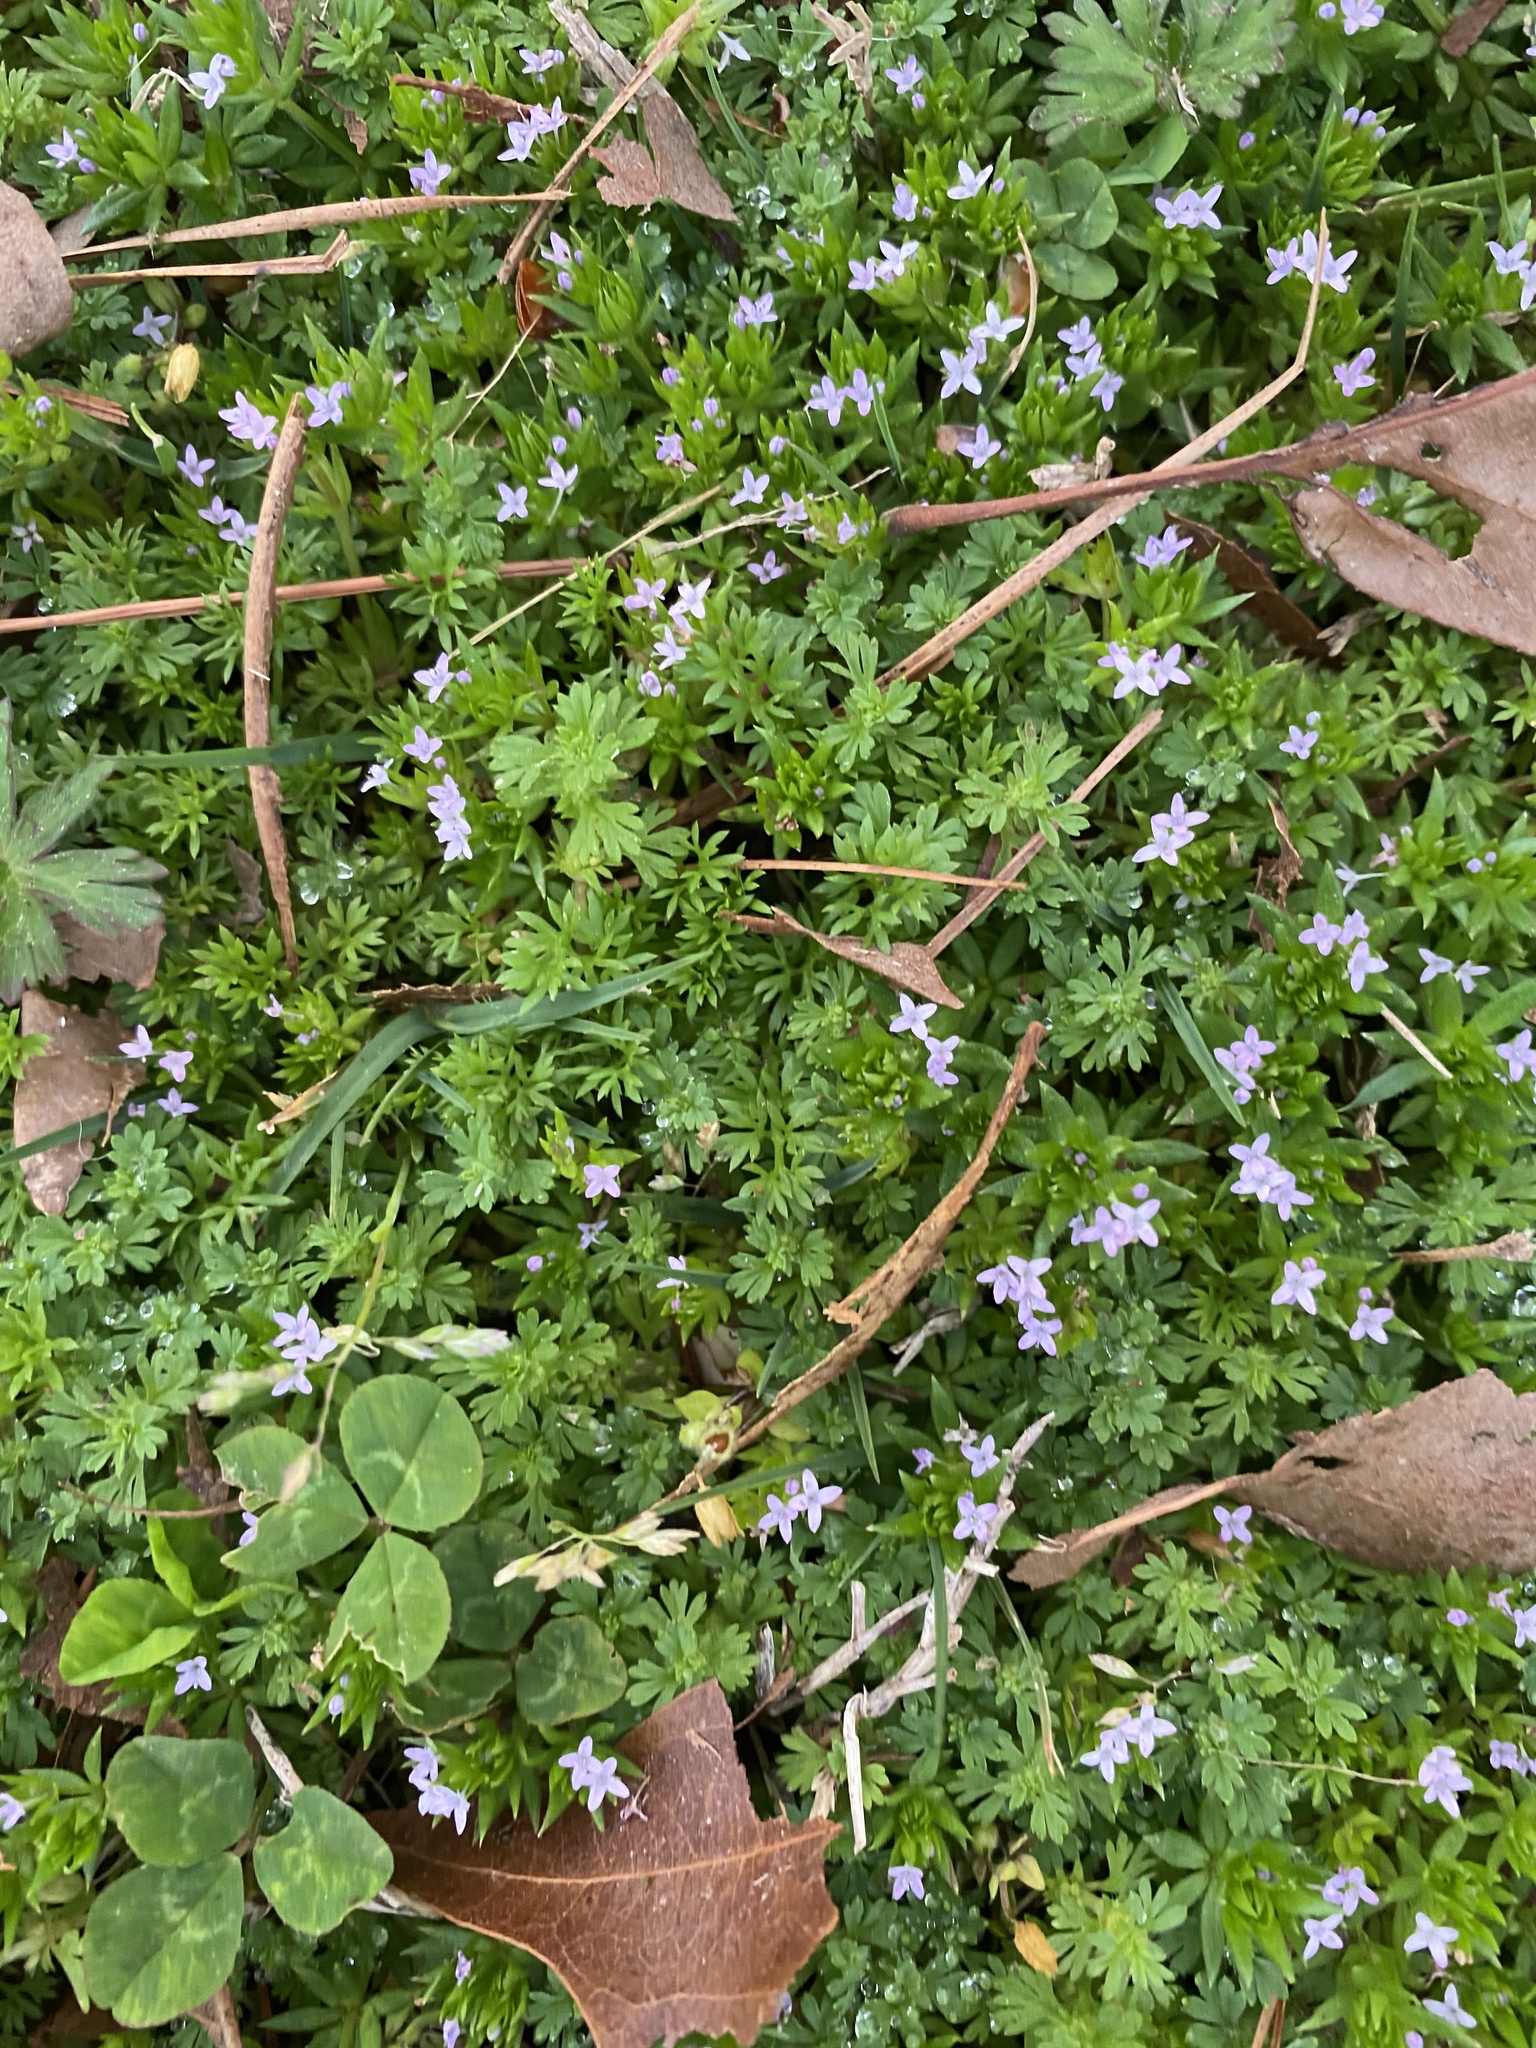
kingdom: Plantae
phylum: Tracheophyta
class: Magnoliopsida
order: Gentianales
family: Rubiaceae
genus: Sherardia
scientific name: Sherardia arvensis
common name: Field madder
